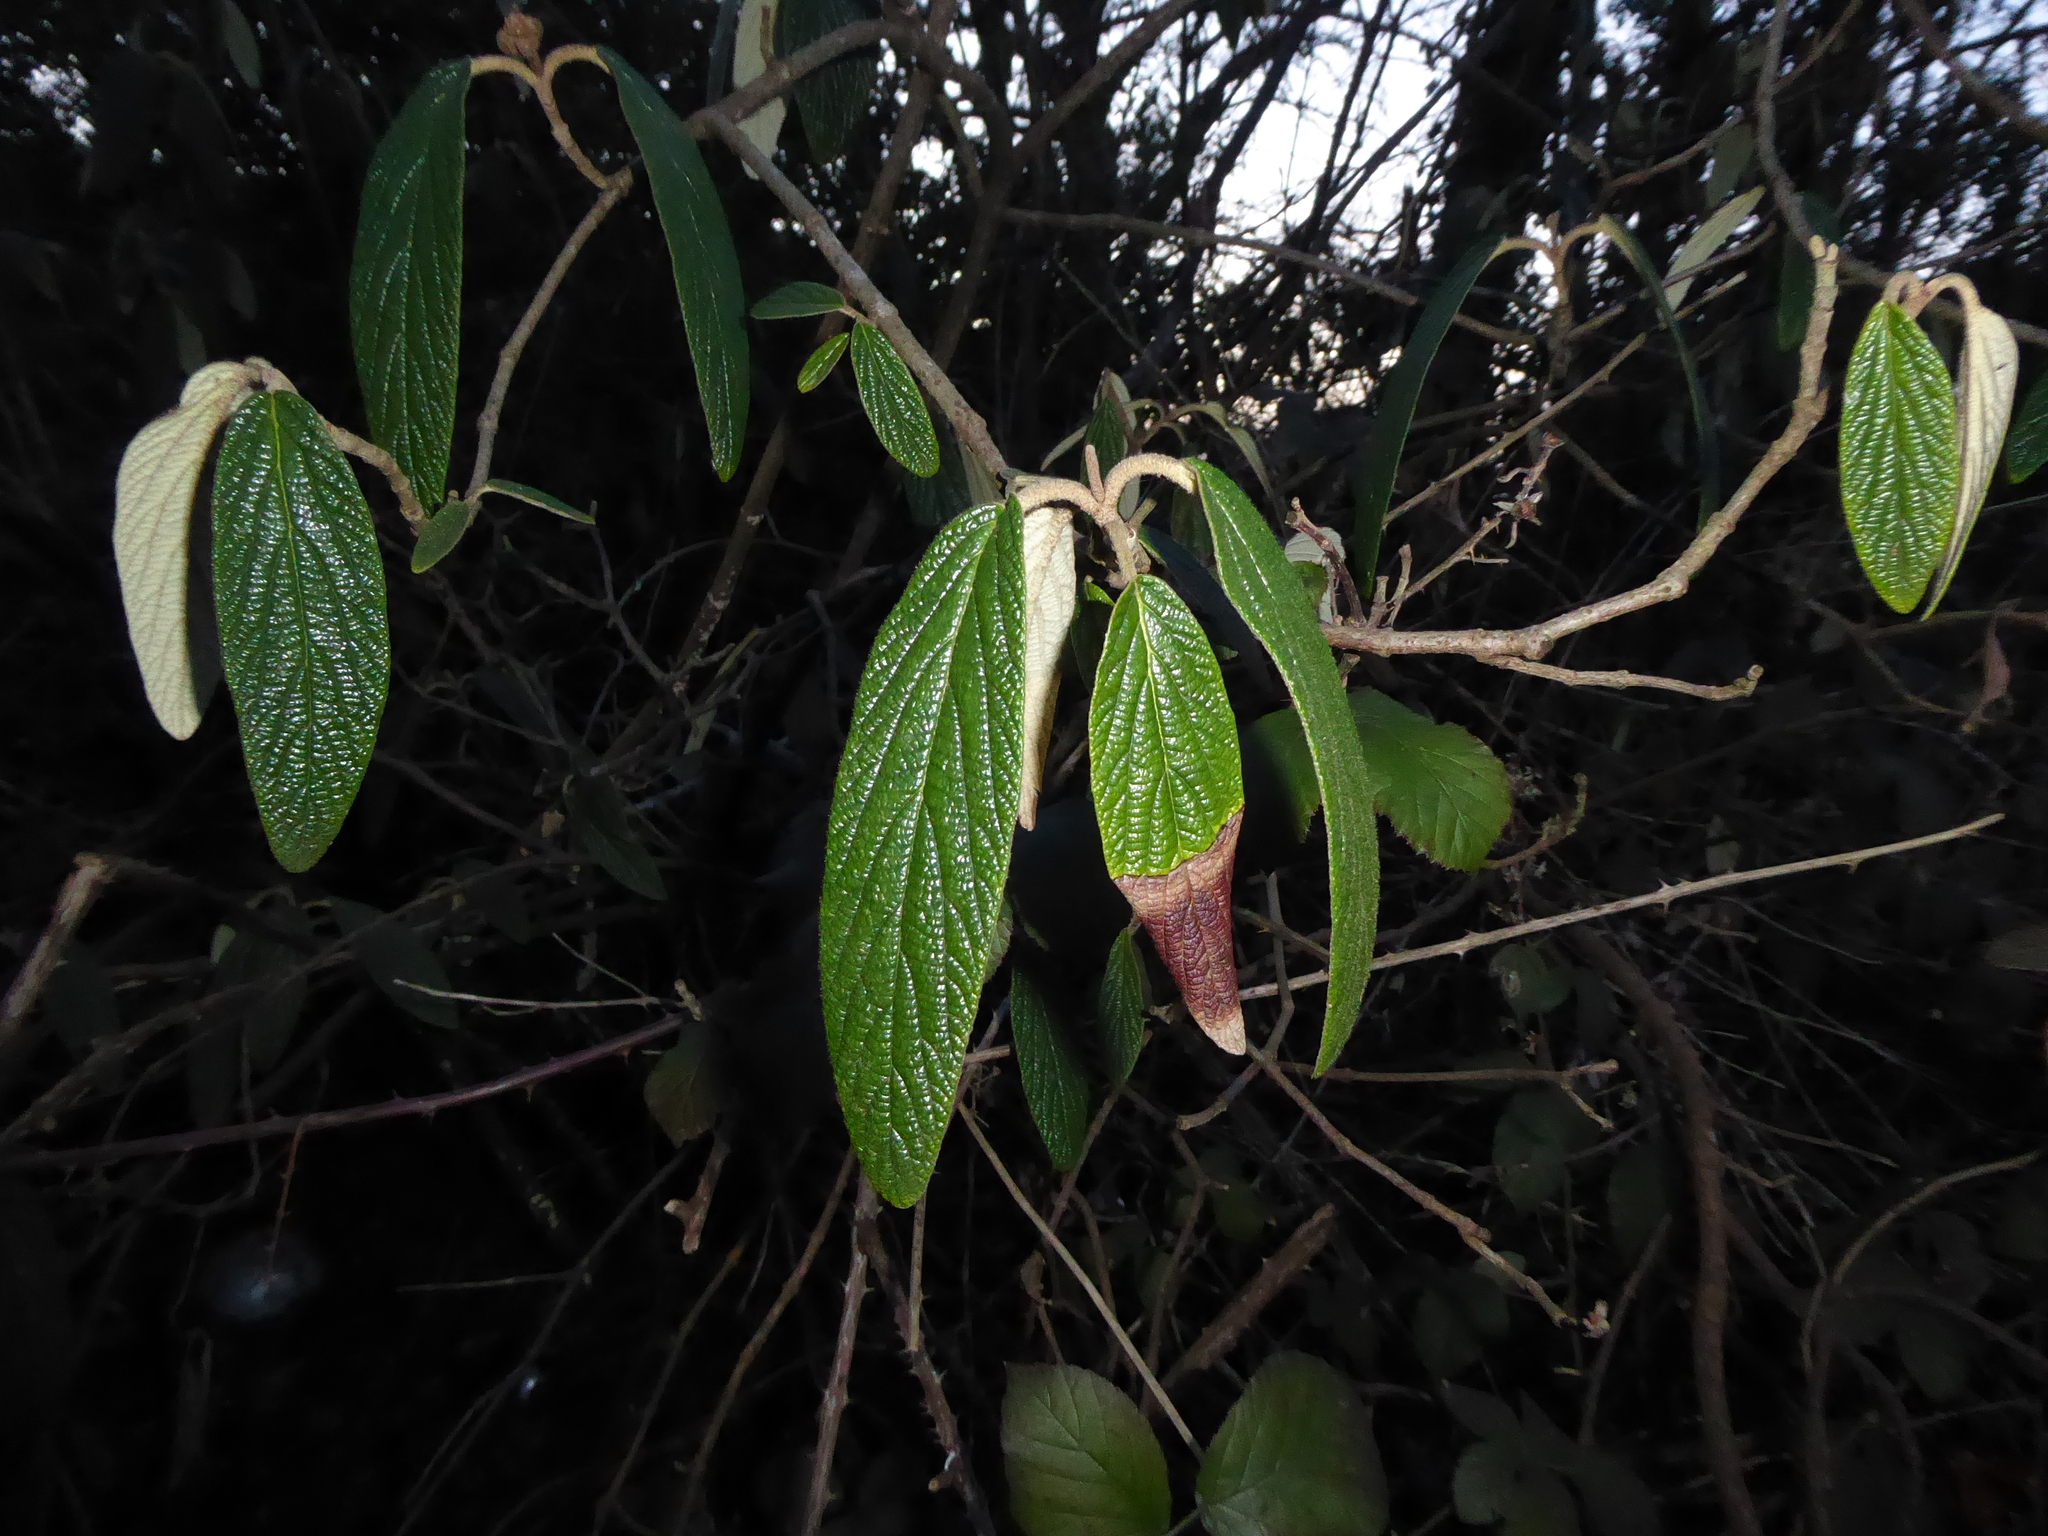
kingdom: Plantae
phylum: Tracheophyta
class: Magnoliopsida
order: Dipsacales
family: Viburnaceae
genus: Viburnum
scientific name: Viburnum rhytidophyllum
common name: Wrinkled viburnum
